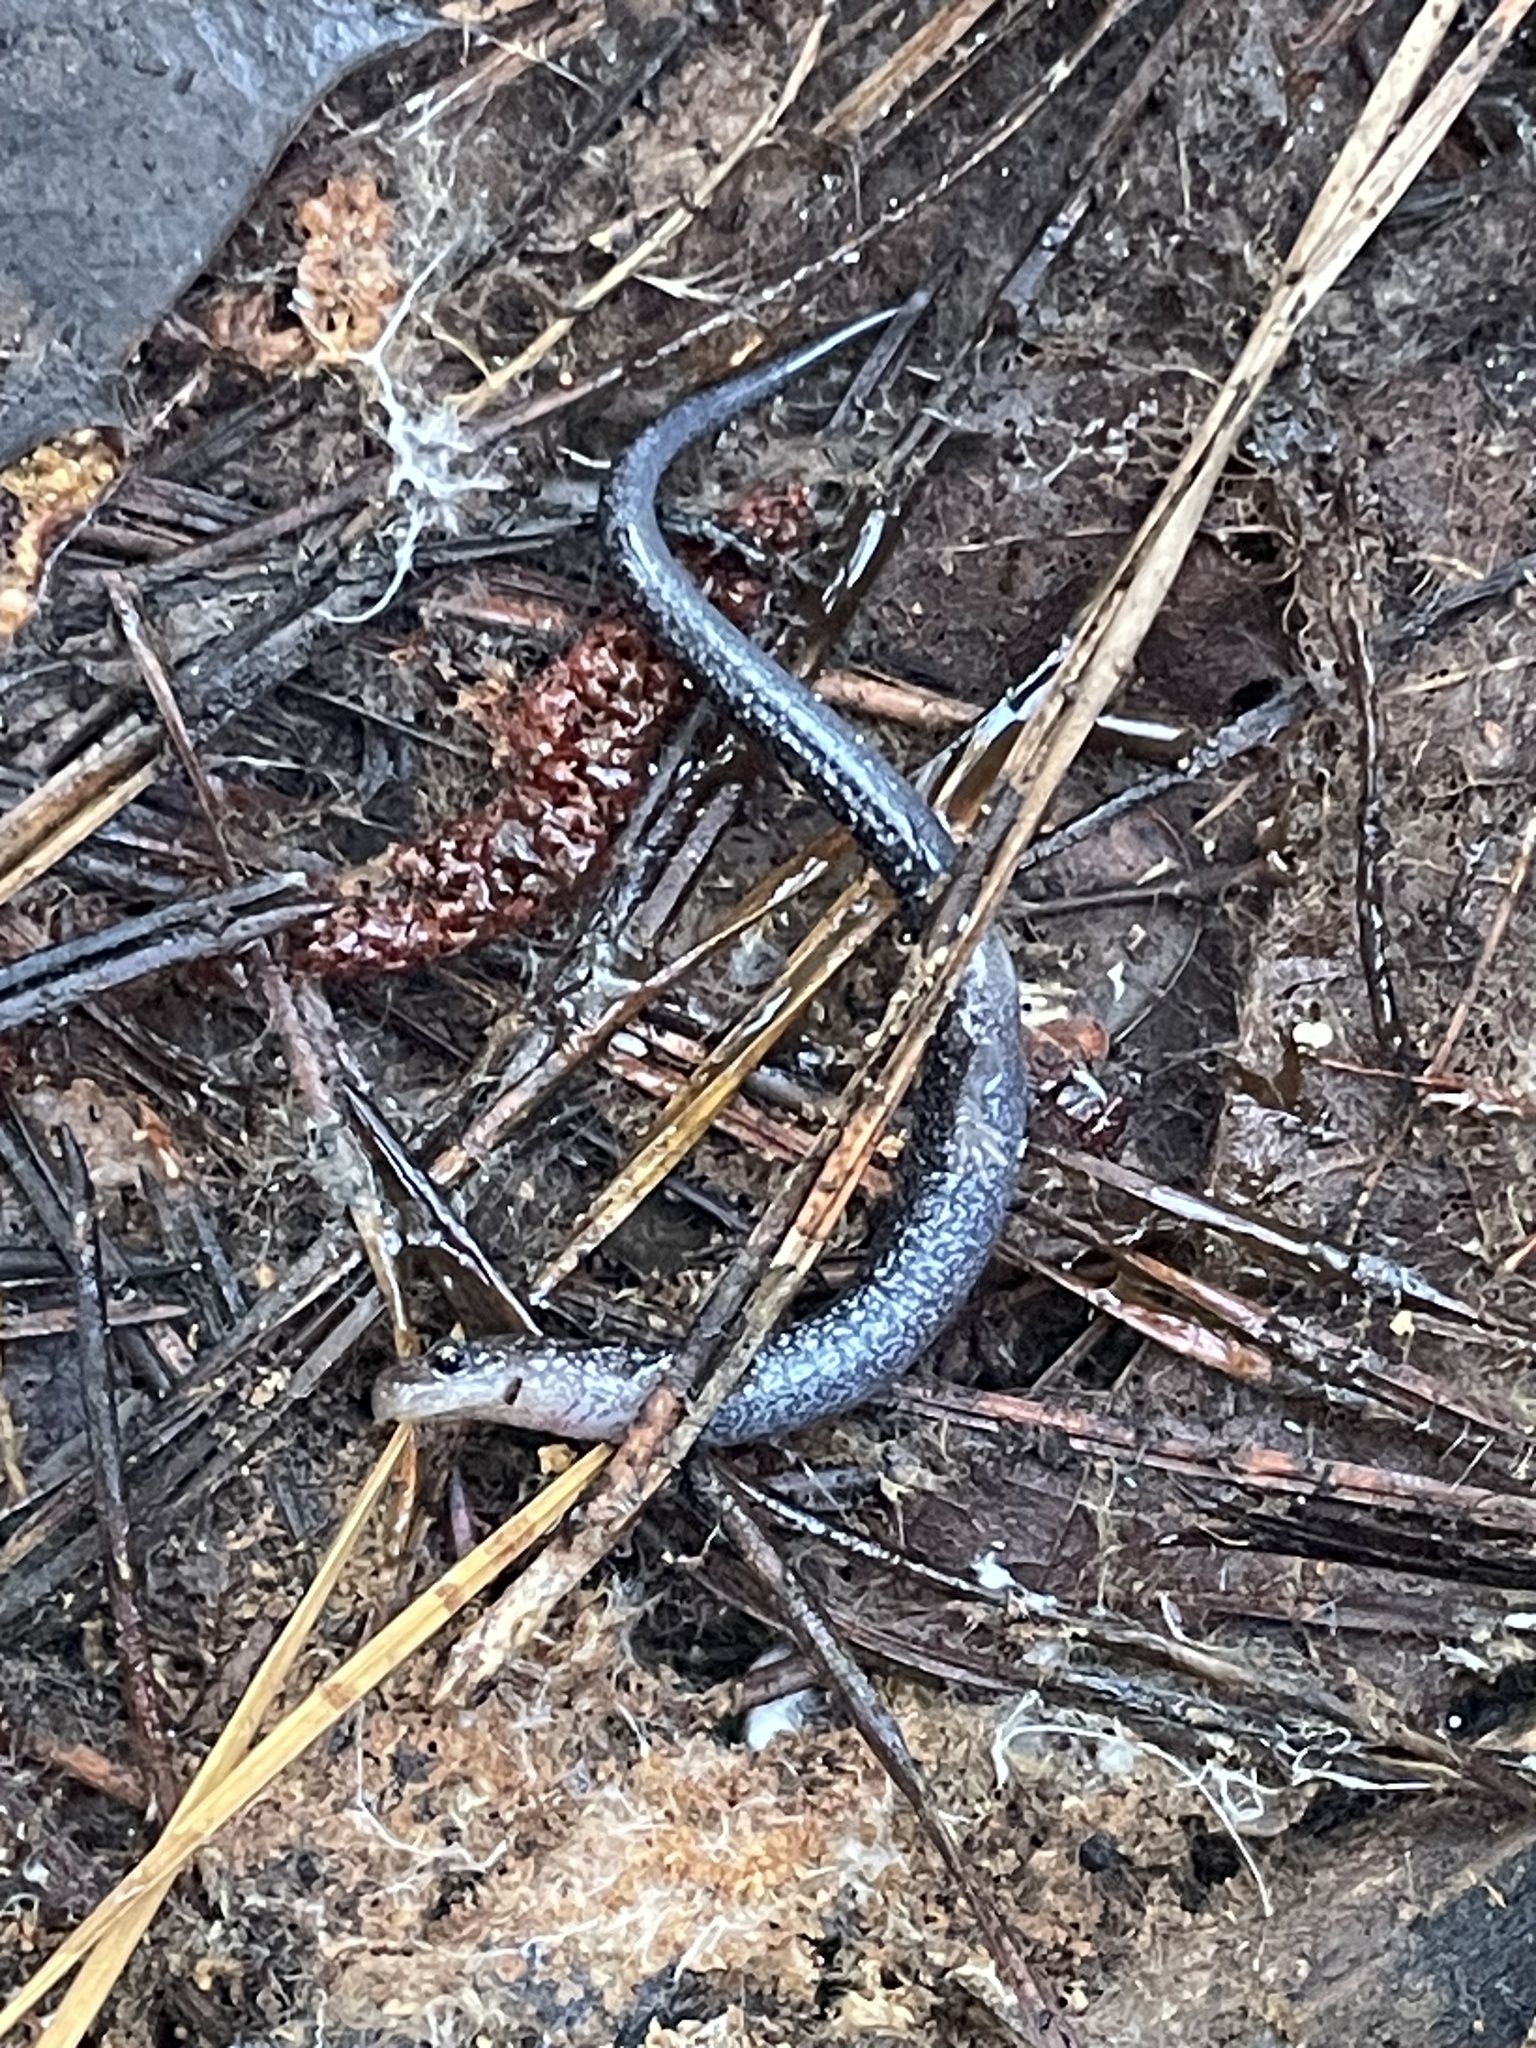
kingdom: Animalia
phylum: Chordata
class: Amphibia
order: Caudata
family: Plethodontidae
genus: Plethodon
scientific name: Plethodon cinereus
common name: Redback salamander
